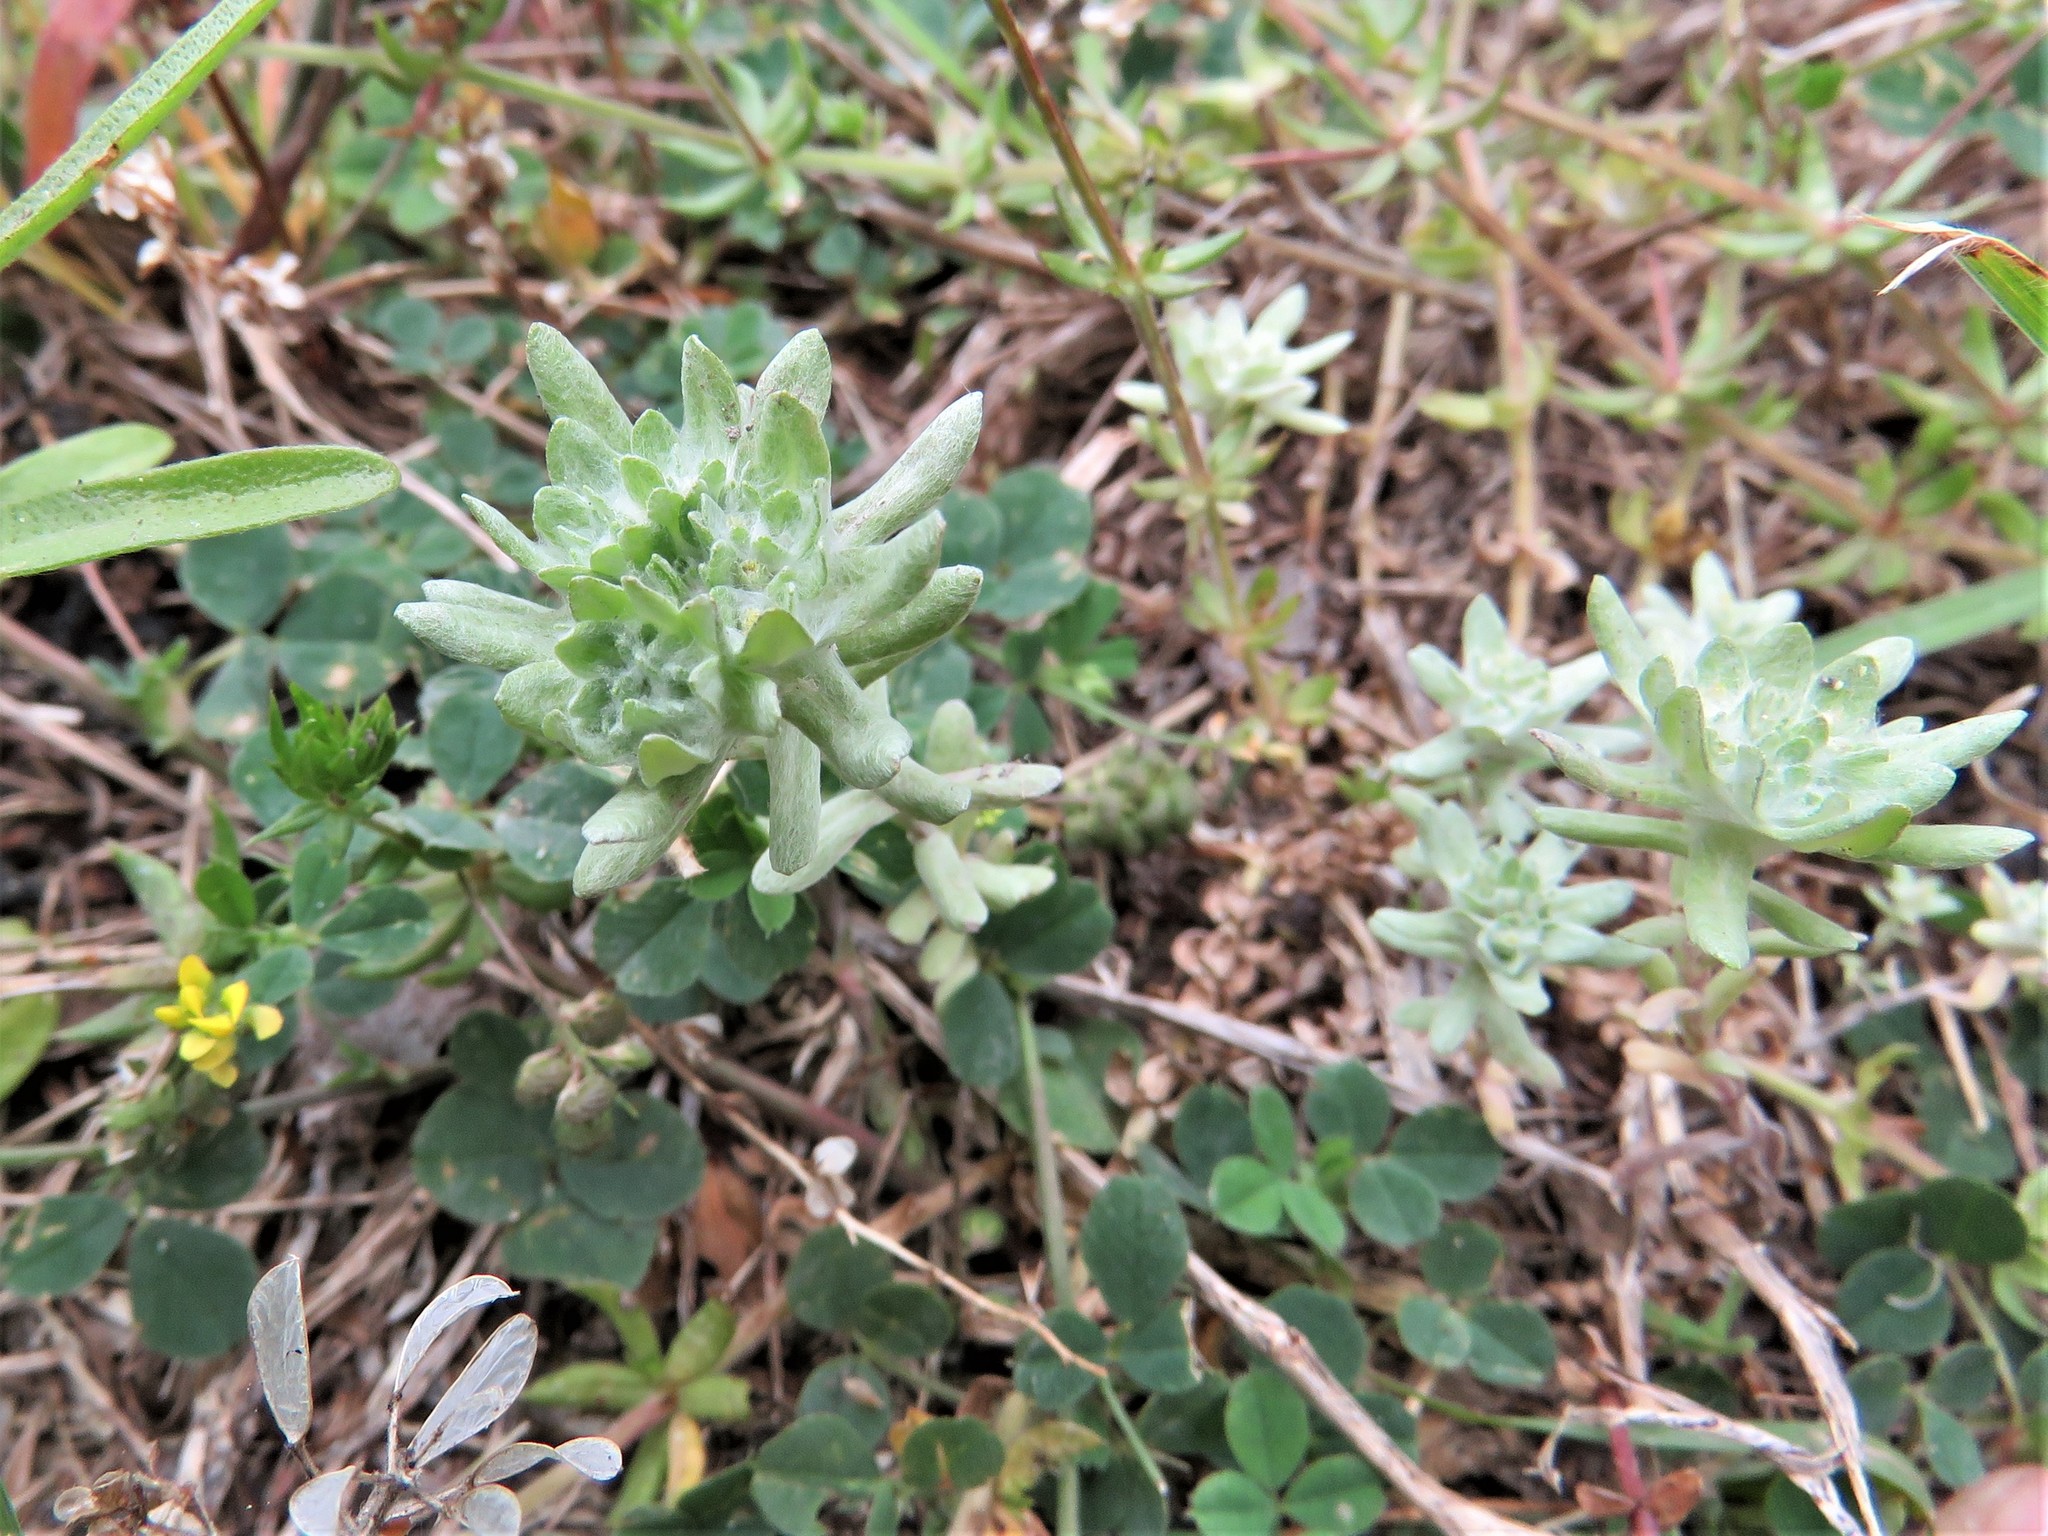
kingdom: Plantae
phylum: Tracheophyta
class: Magnoliopsida
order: Asterales
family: Asteraceae
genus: Diaperia
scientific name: Diaperia prolifera
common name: Big-head rabbit-tobacco
